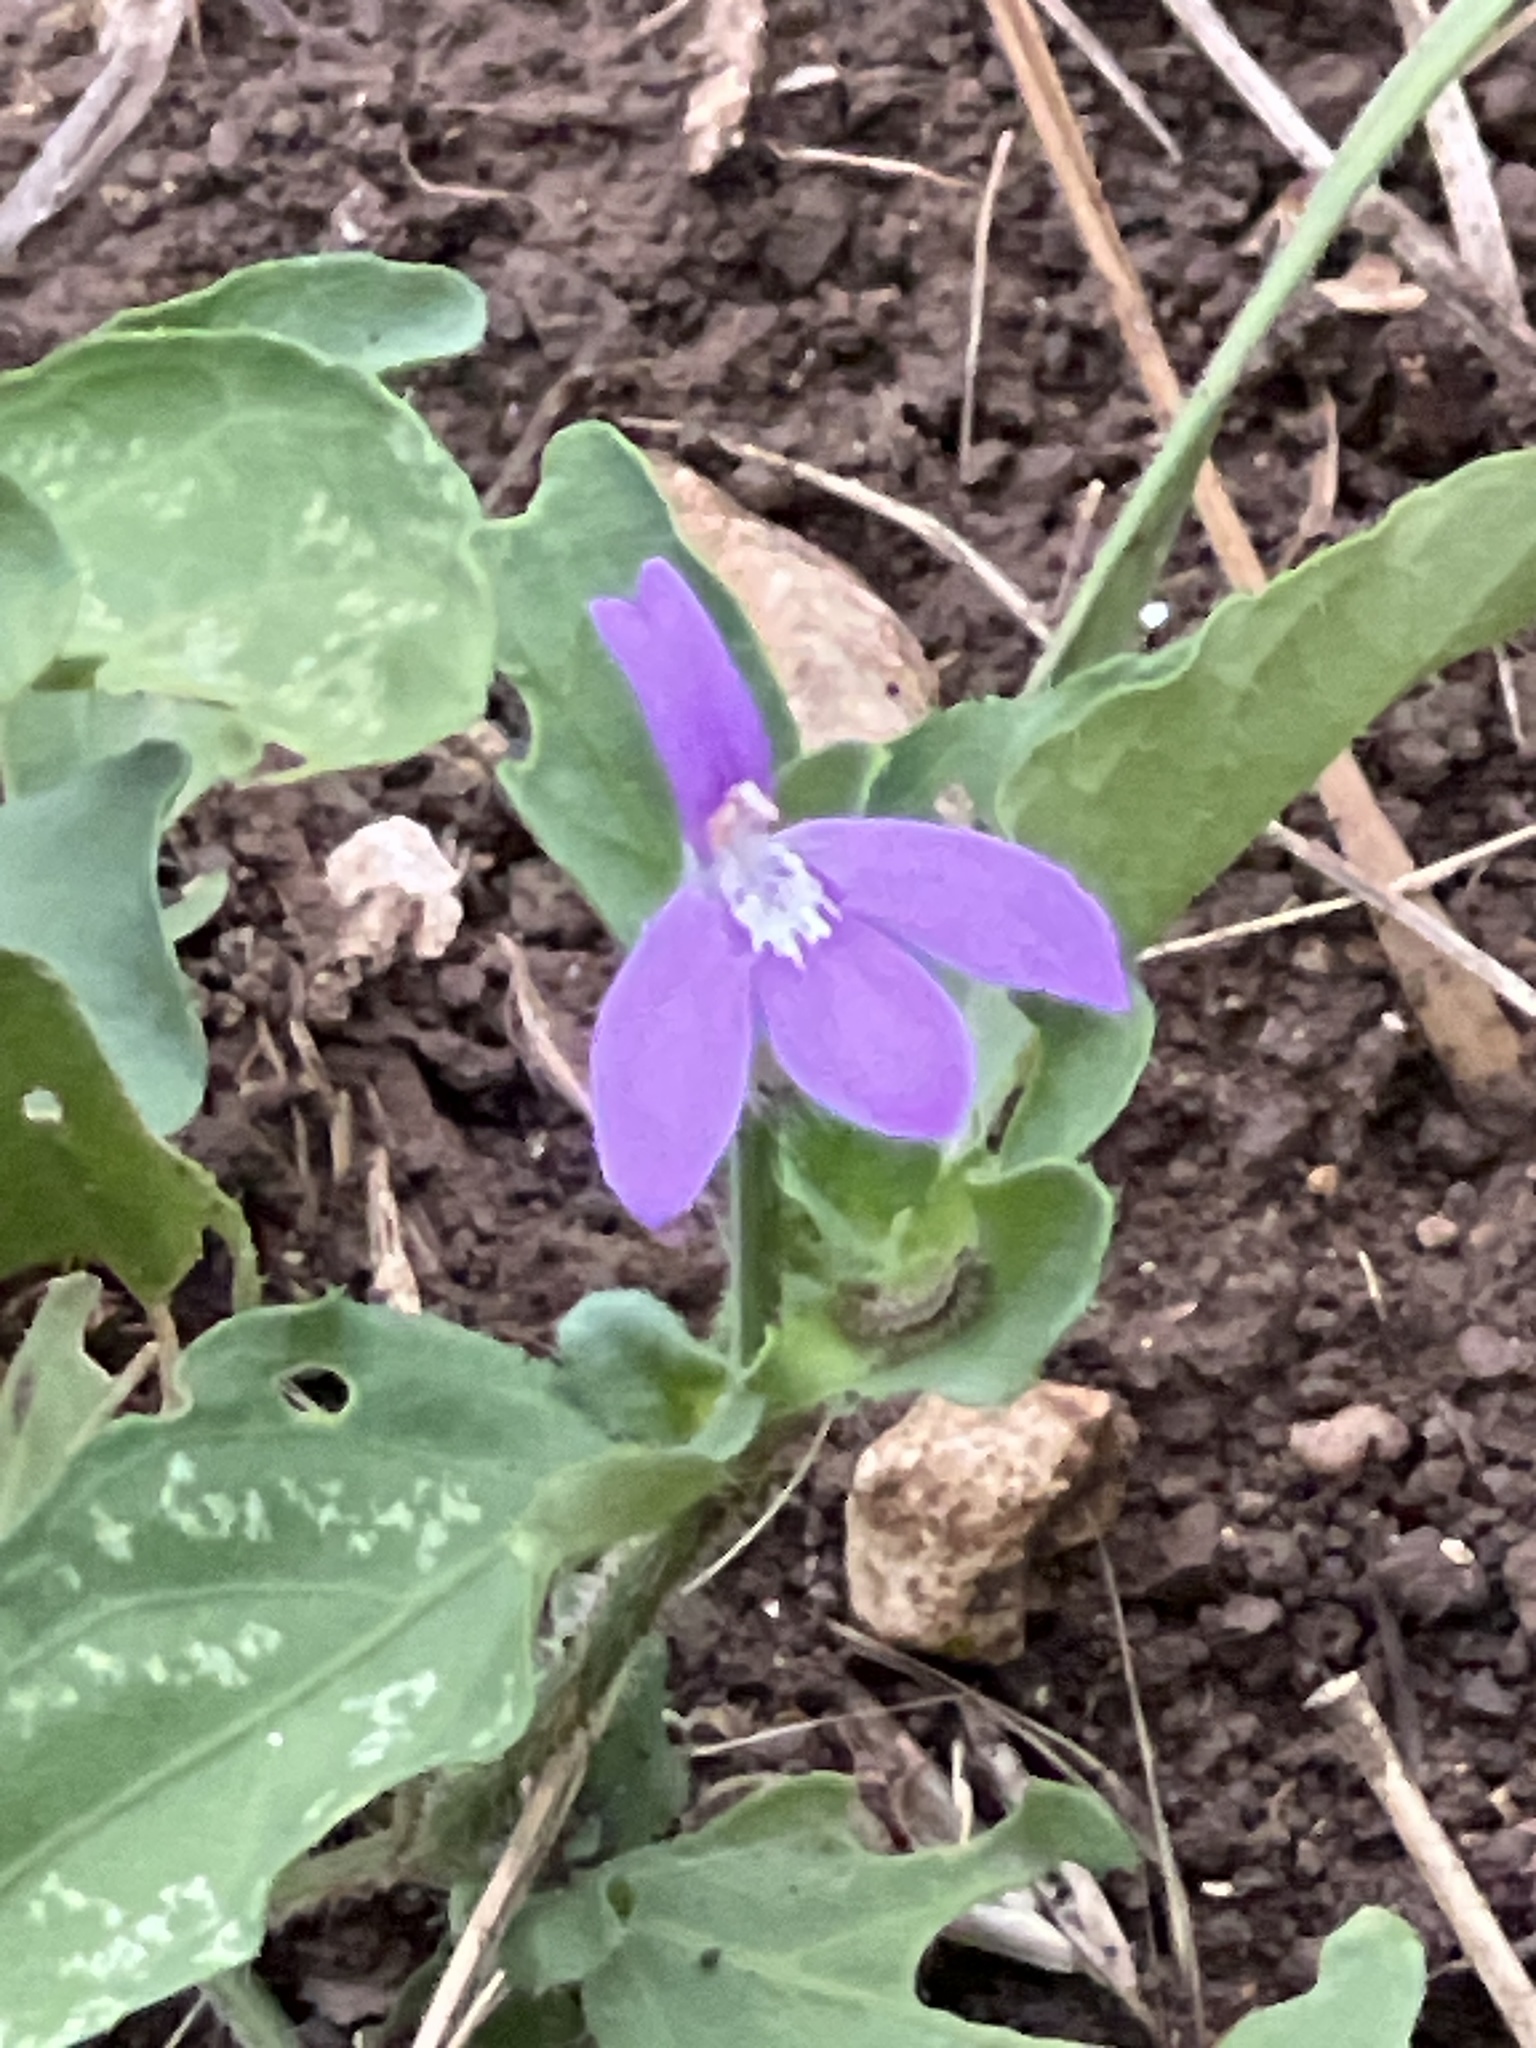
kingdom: Plantae
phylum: Tracheophyta
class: Magnoliopsida
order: Lamiales
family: Acanthaceae
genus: Justicia
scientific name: Justicia pilosella
